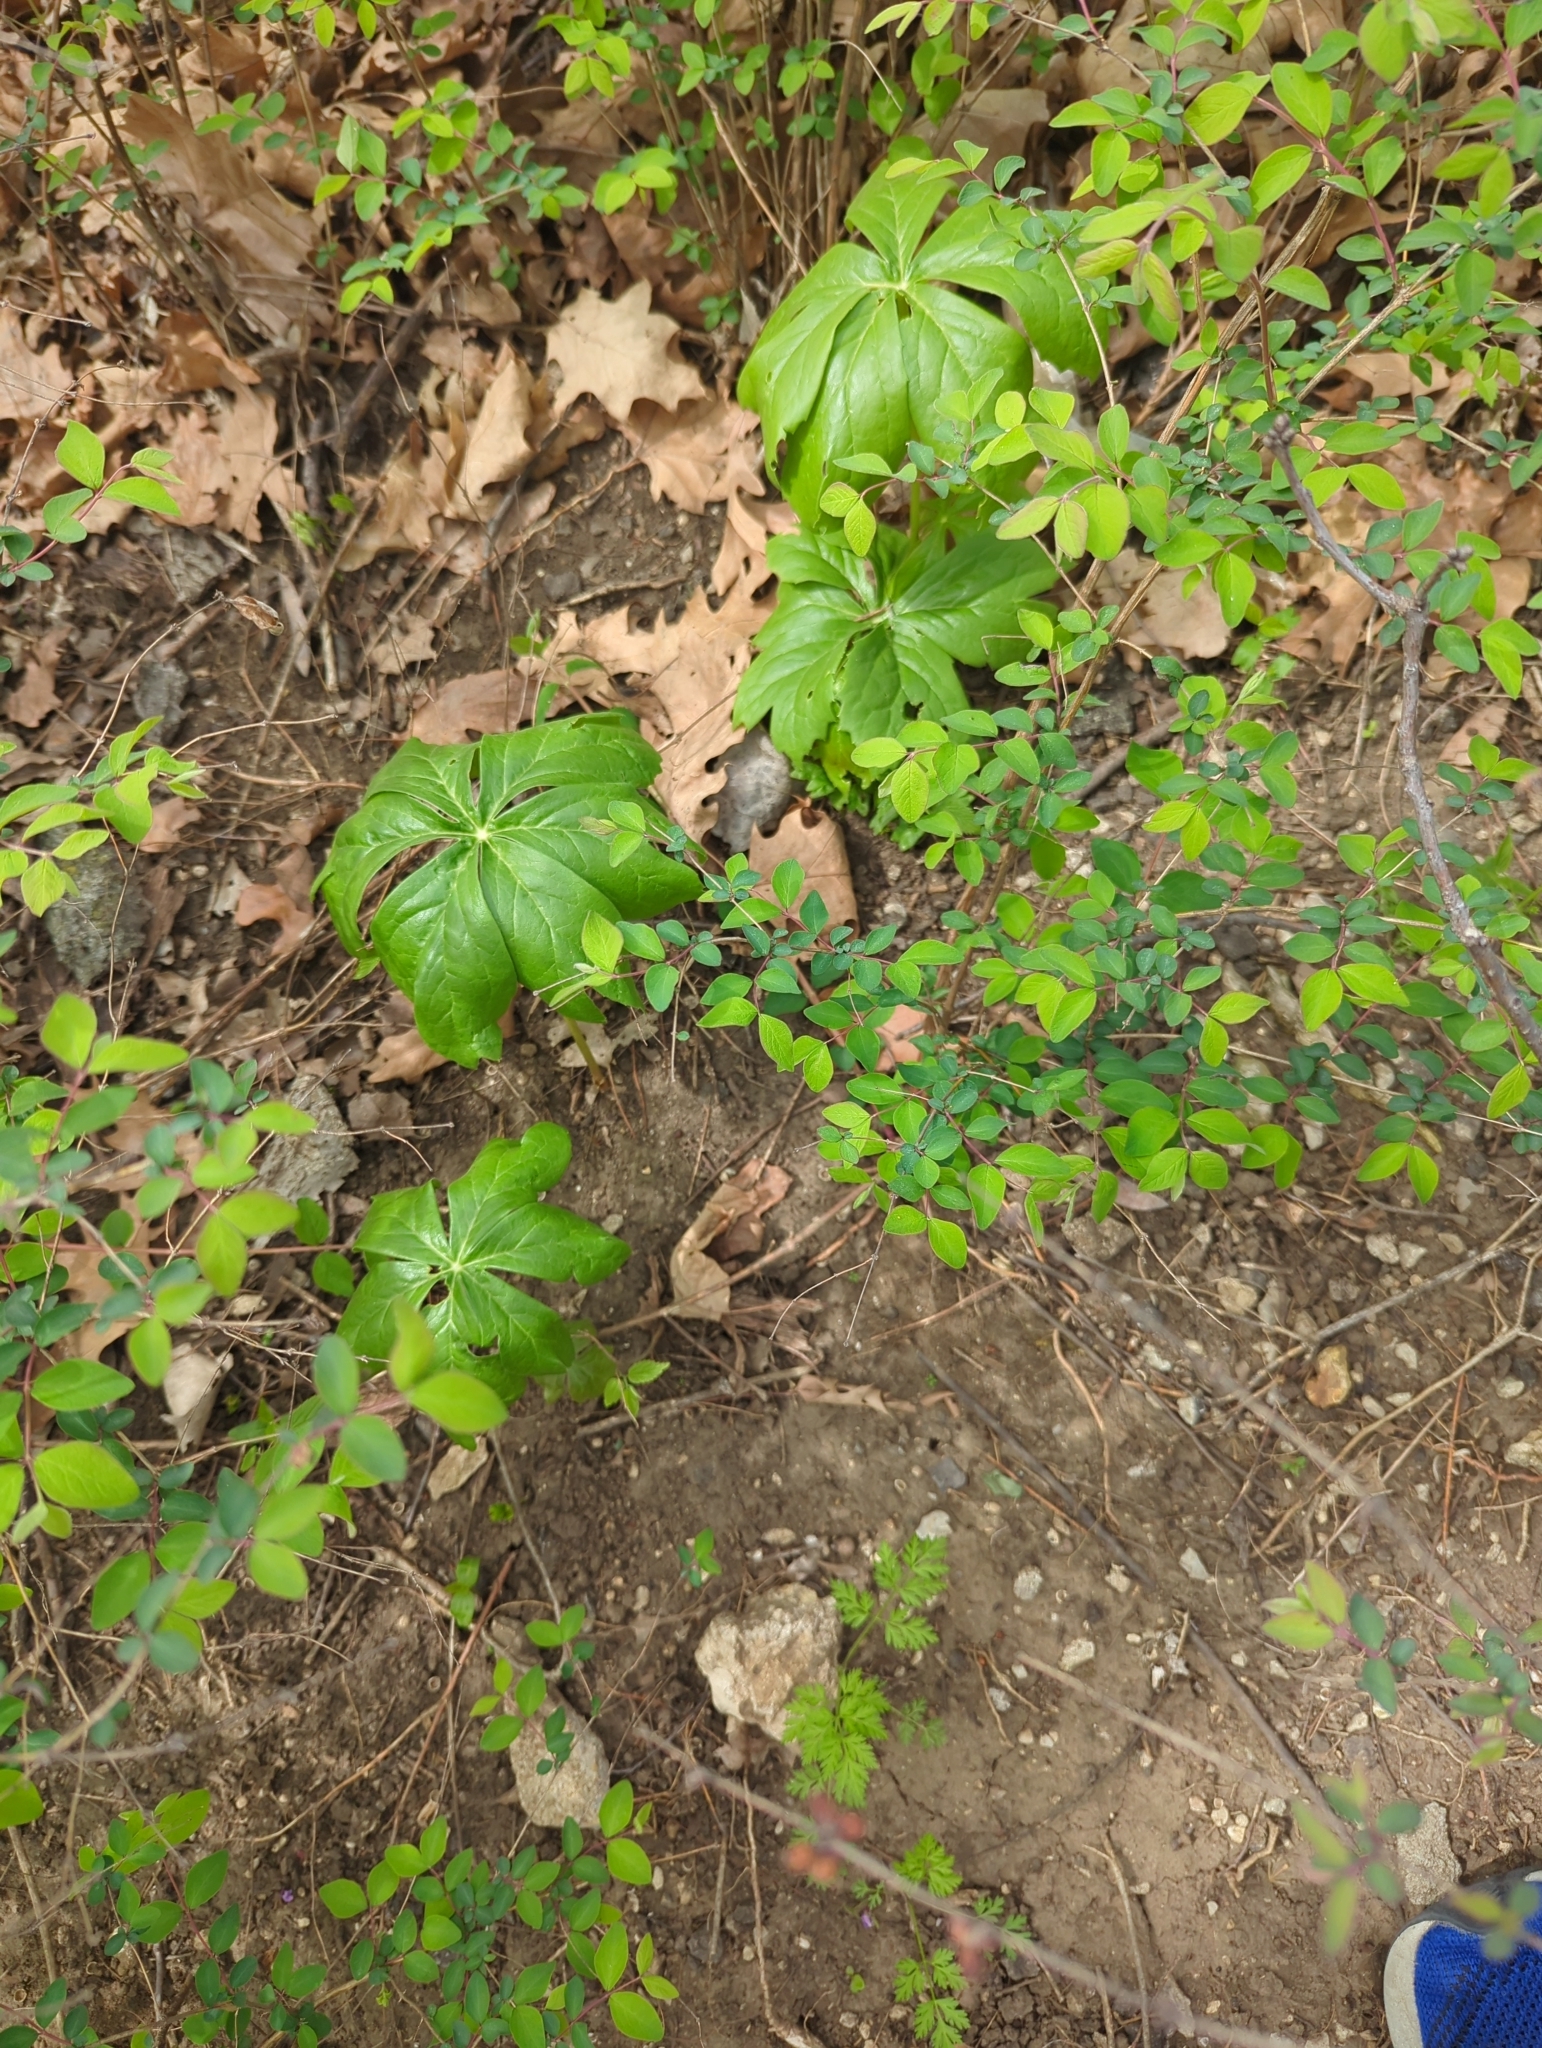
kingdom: Plantae
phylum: Tracheophyta
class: Magnoliopsida
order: Ranunculales
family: Berberidaceae
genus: Podophyllum
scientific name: Podophyllum peltatum
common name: Wild mandrake
